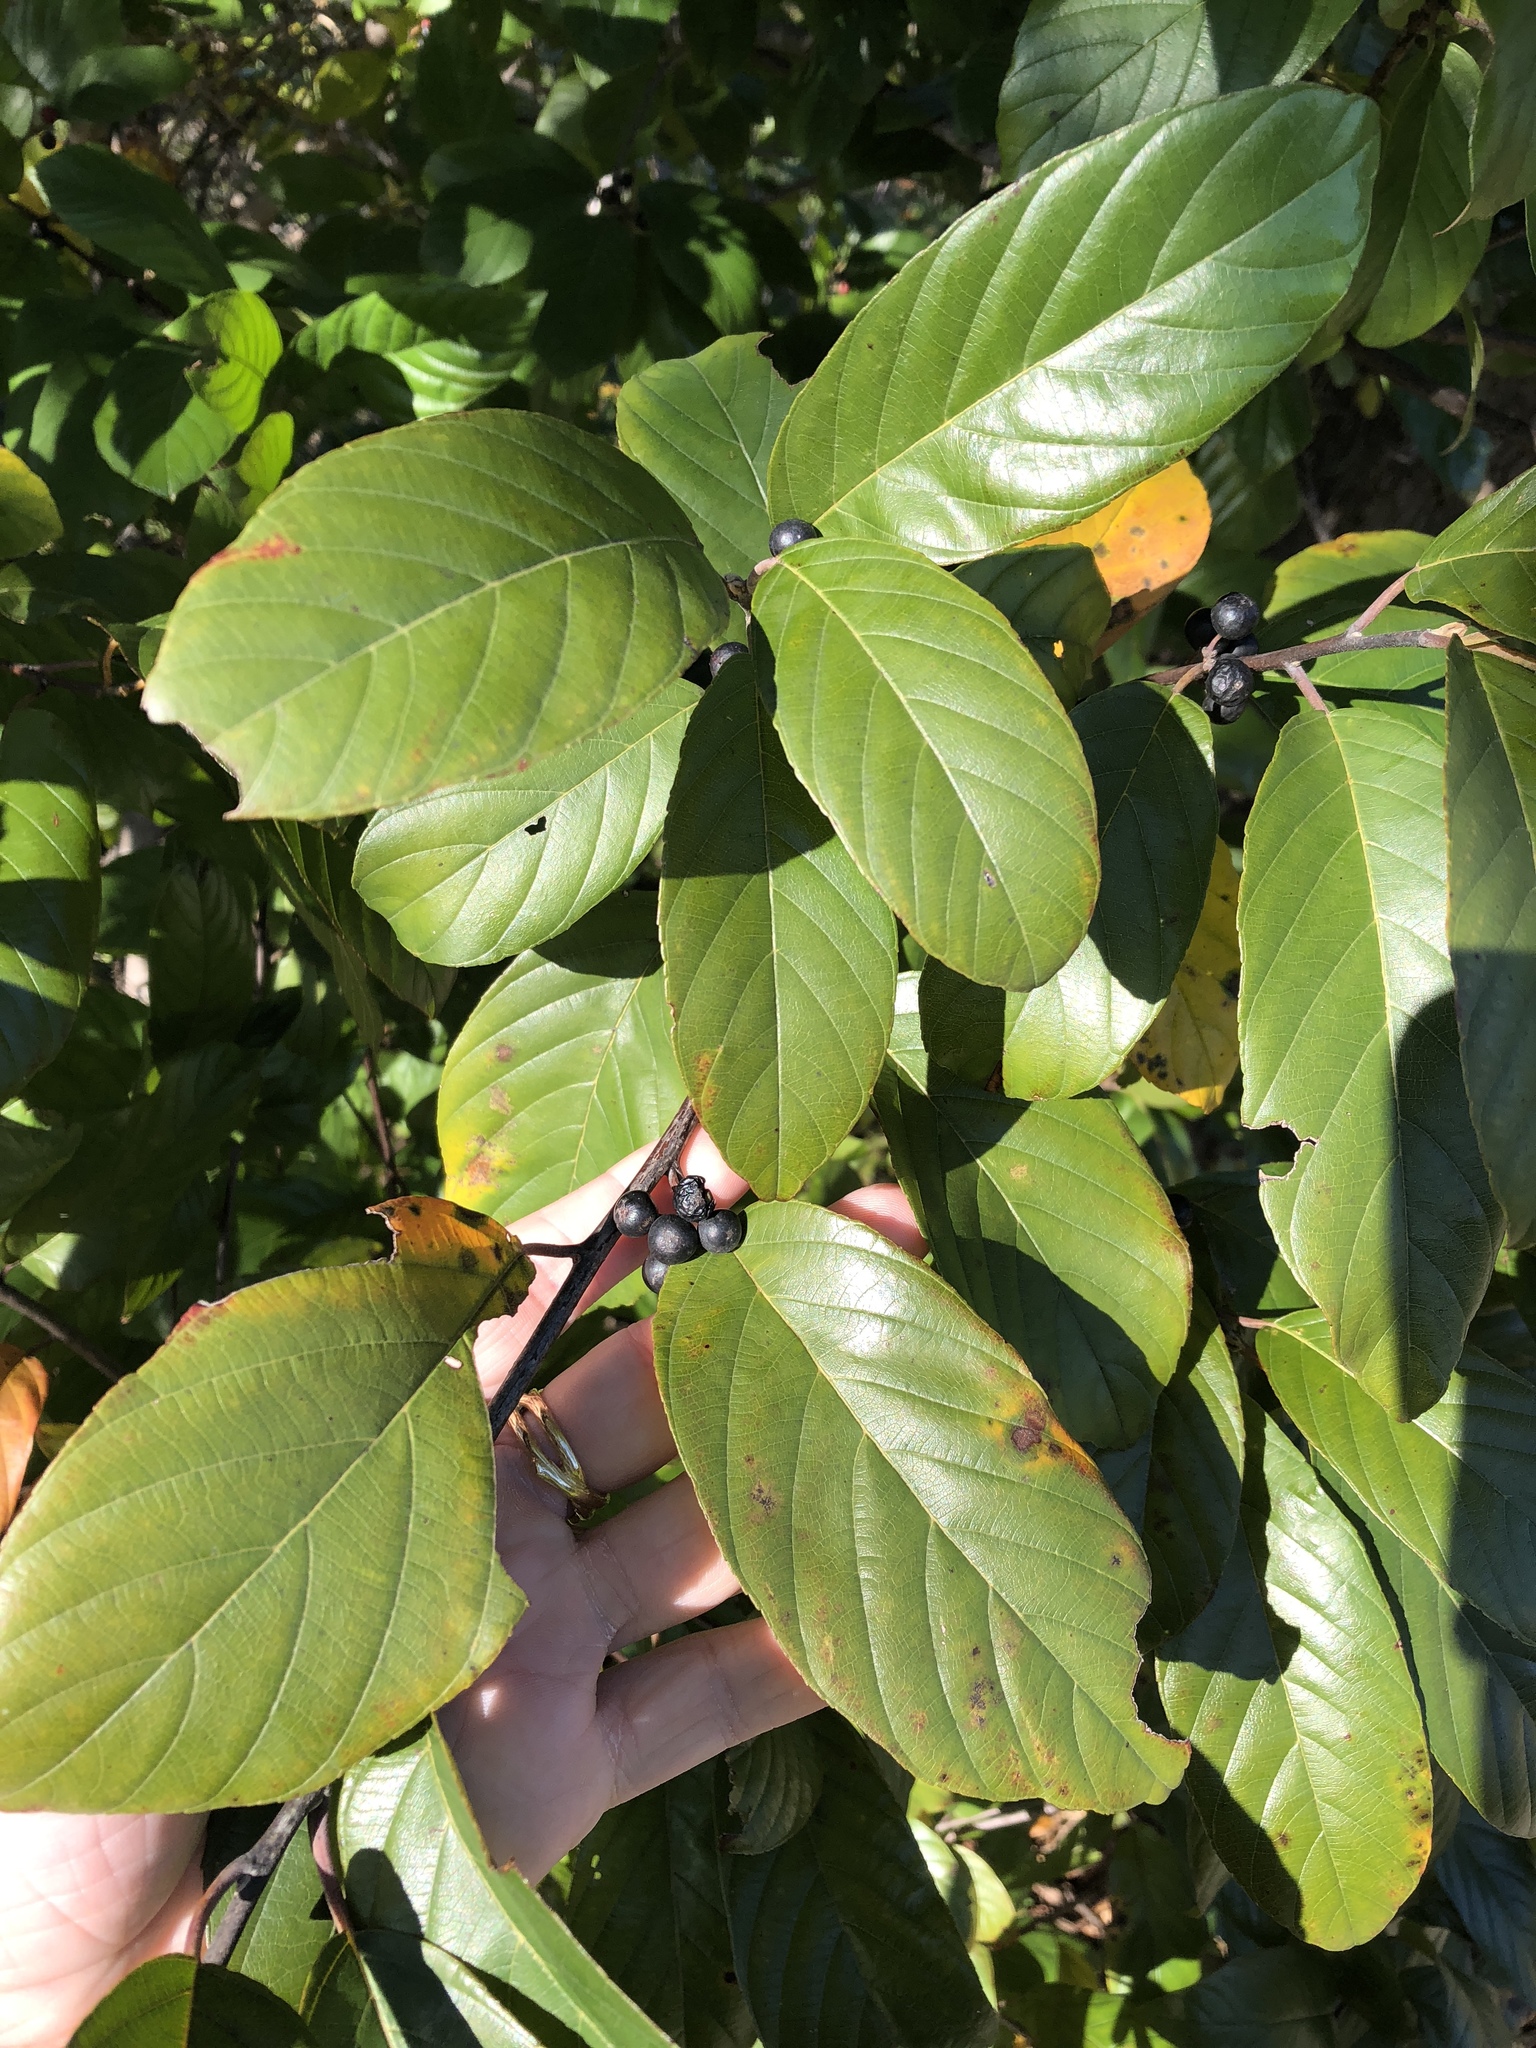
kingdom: Plantae
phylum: Tracheophyta
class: Magnoliopsida
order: Rosales
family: Rhamnaceae
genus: Frangula
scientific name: Frangula caroliniana
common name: Carolina buckthorn
